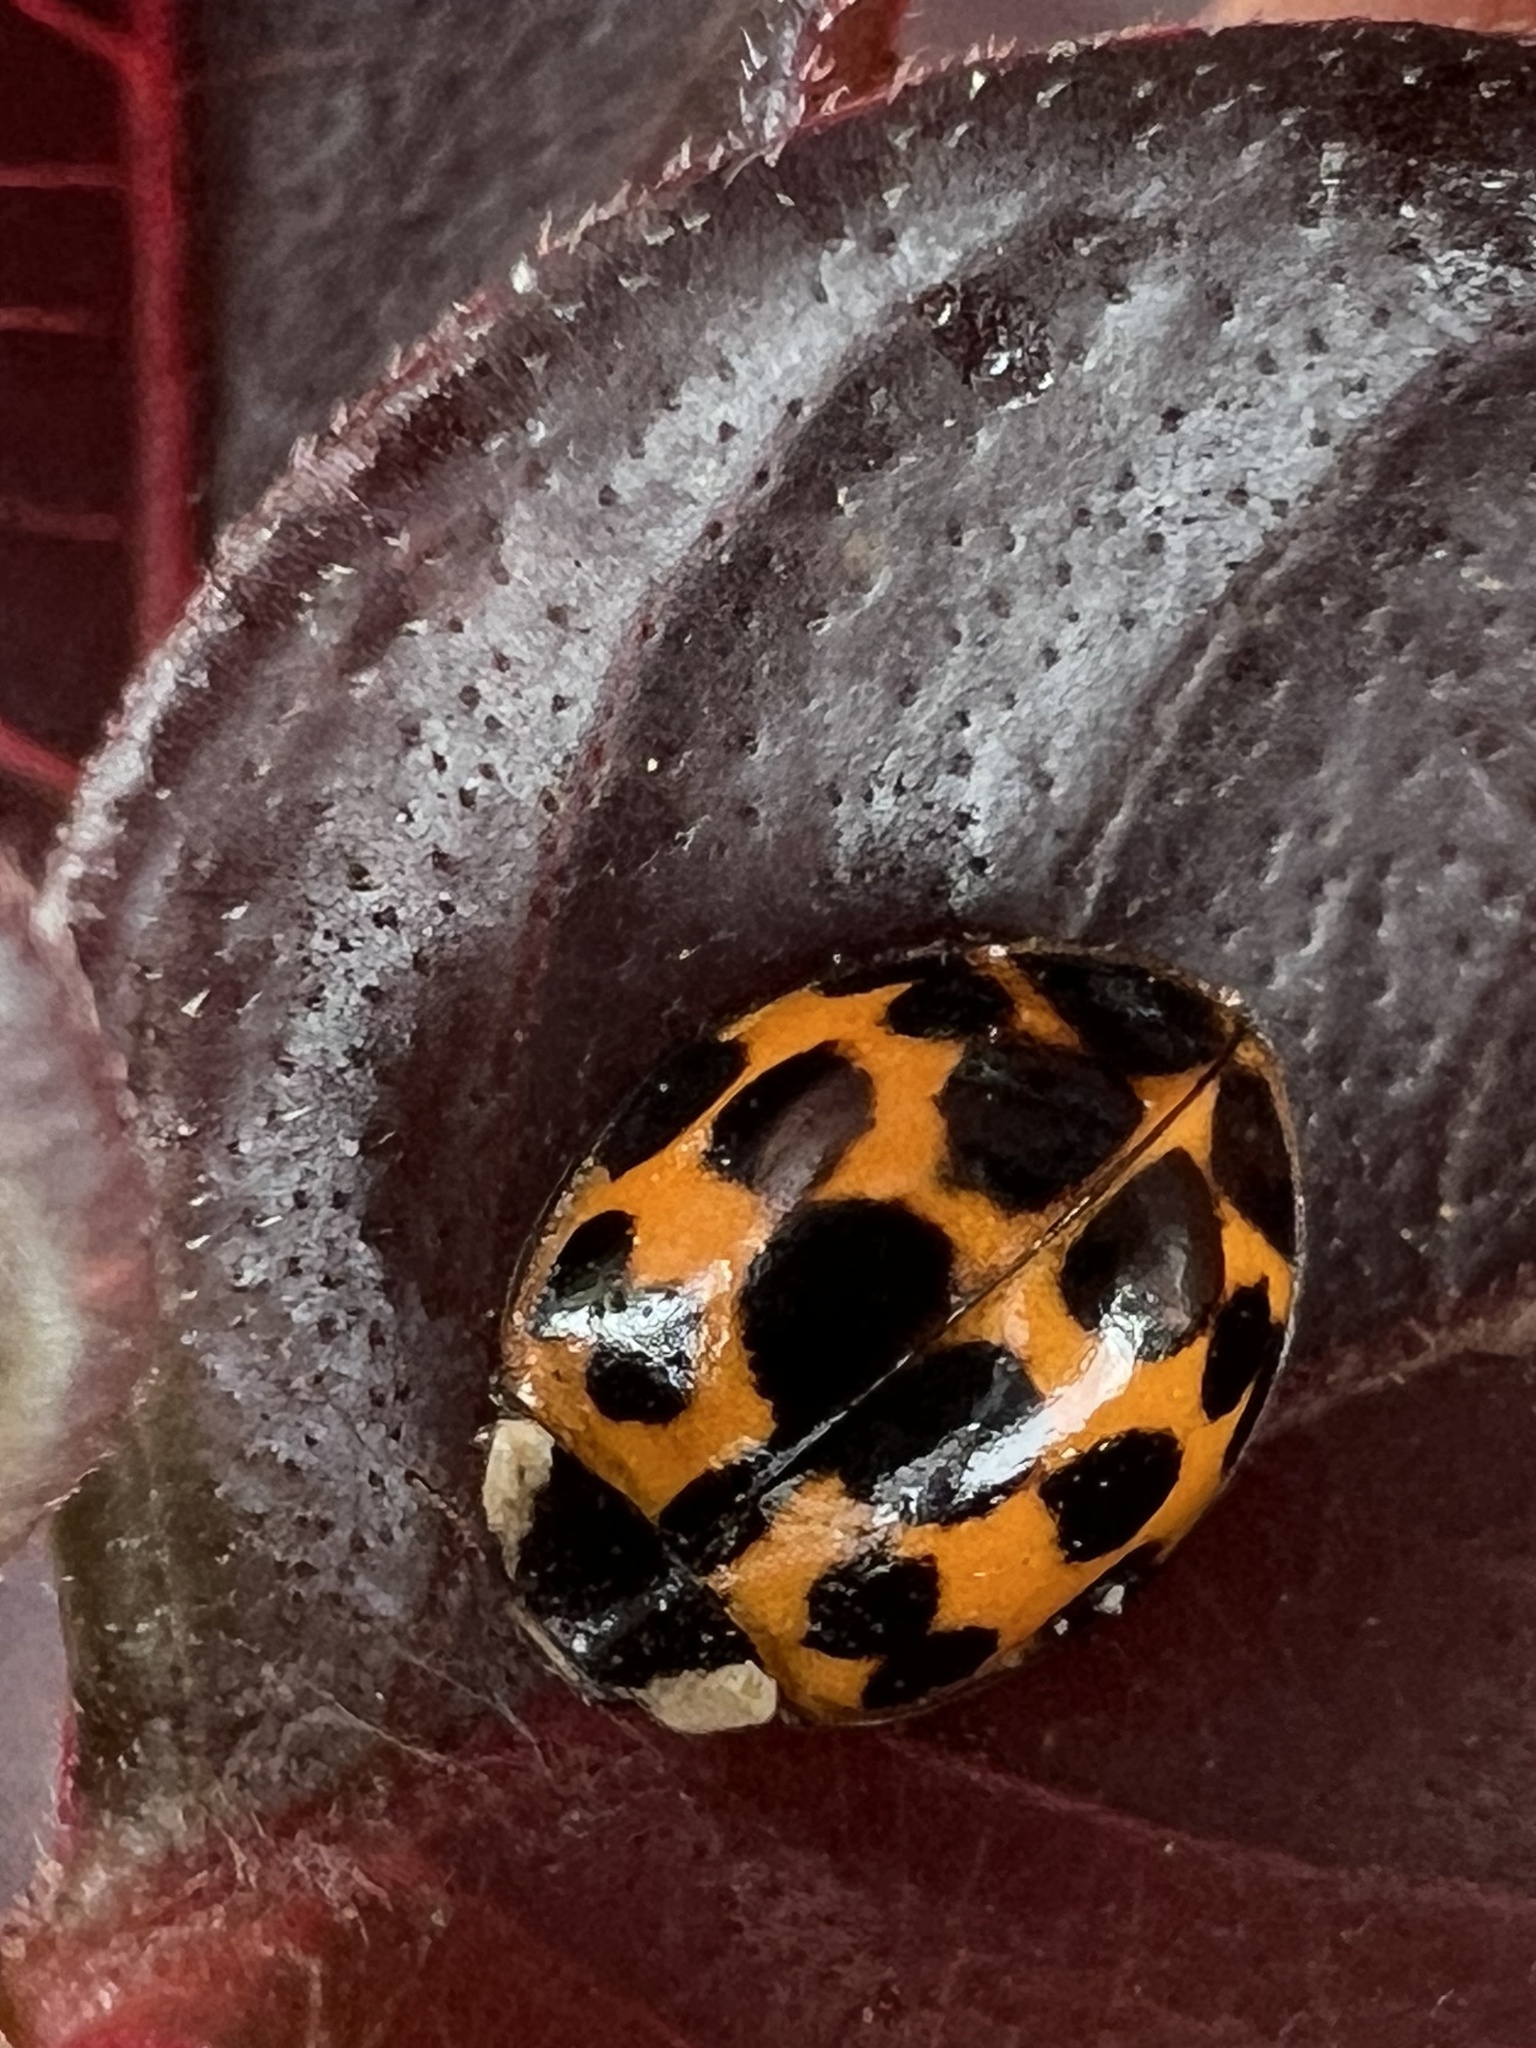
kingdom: Animalia
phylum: Arthropoda
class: Insecta
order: Coleoptera
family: Coccinellidae
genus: Harmonia
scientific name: Harmonia axyridis
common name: Harlequin ladybird
